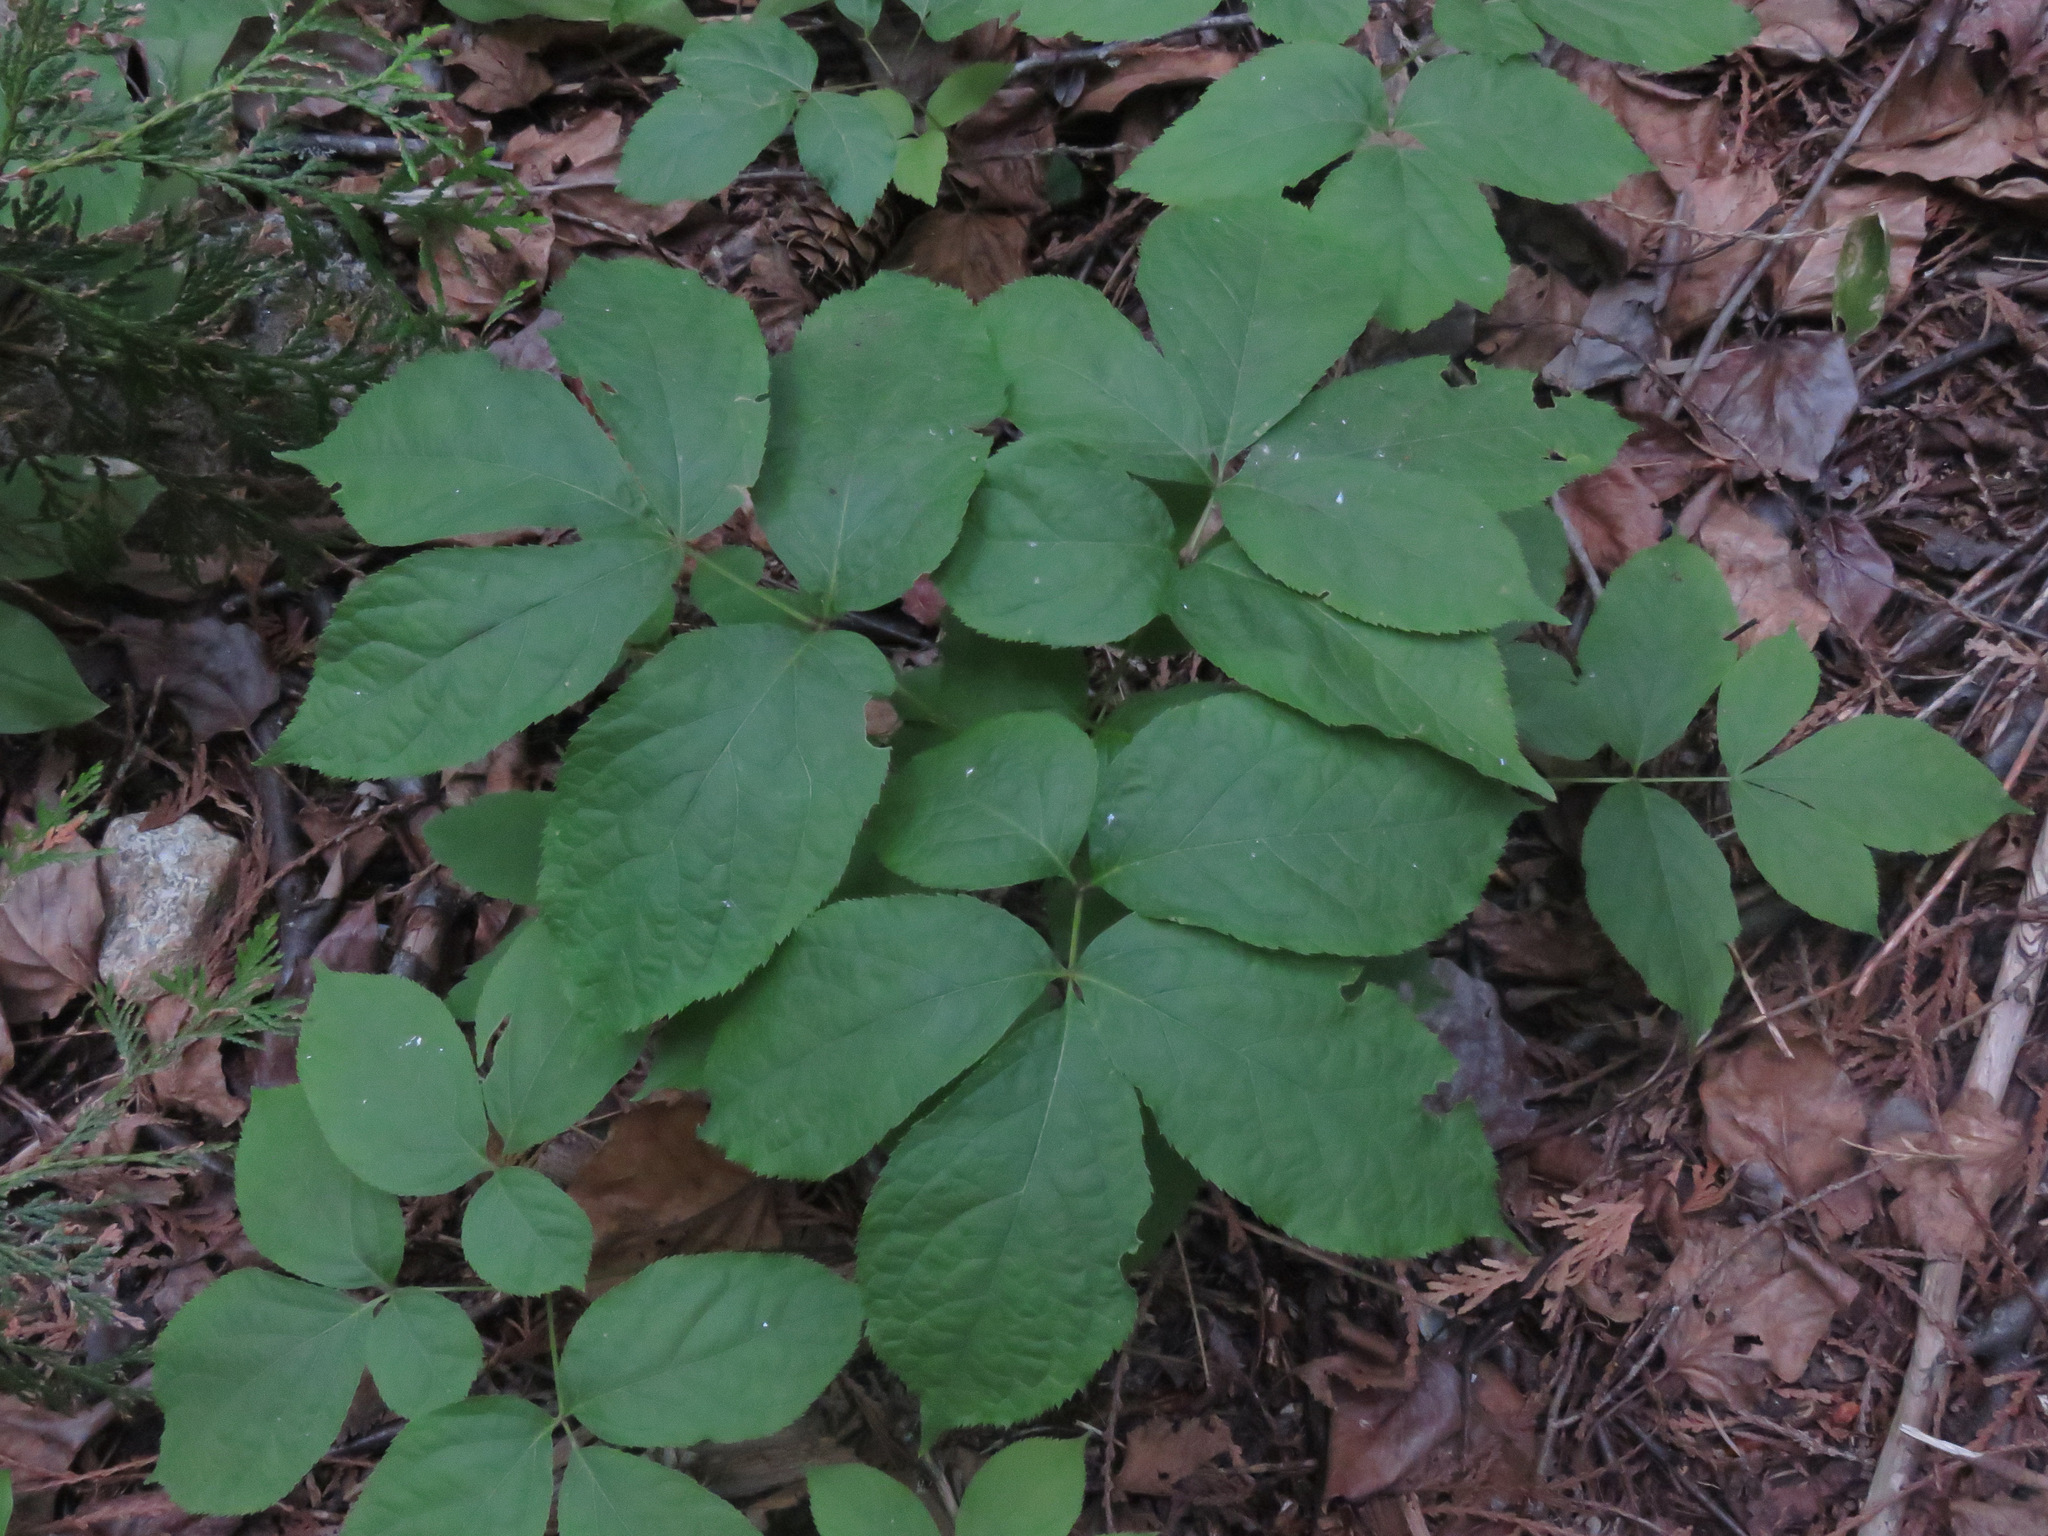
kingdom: Plantae
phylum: Tracheophyta
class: Magnoliopsida
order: Apiales
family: Araliaceae
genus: Aralia
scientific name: Aralia nudicaulis
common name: Wild sarsaparilla
